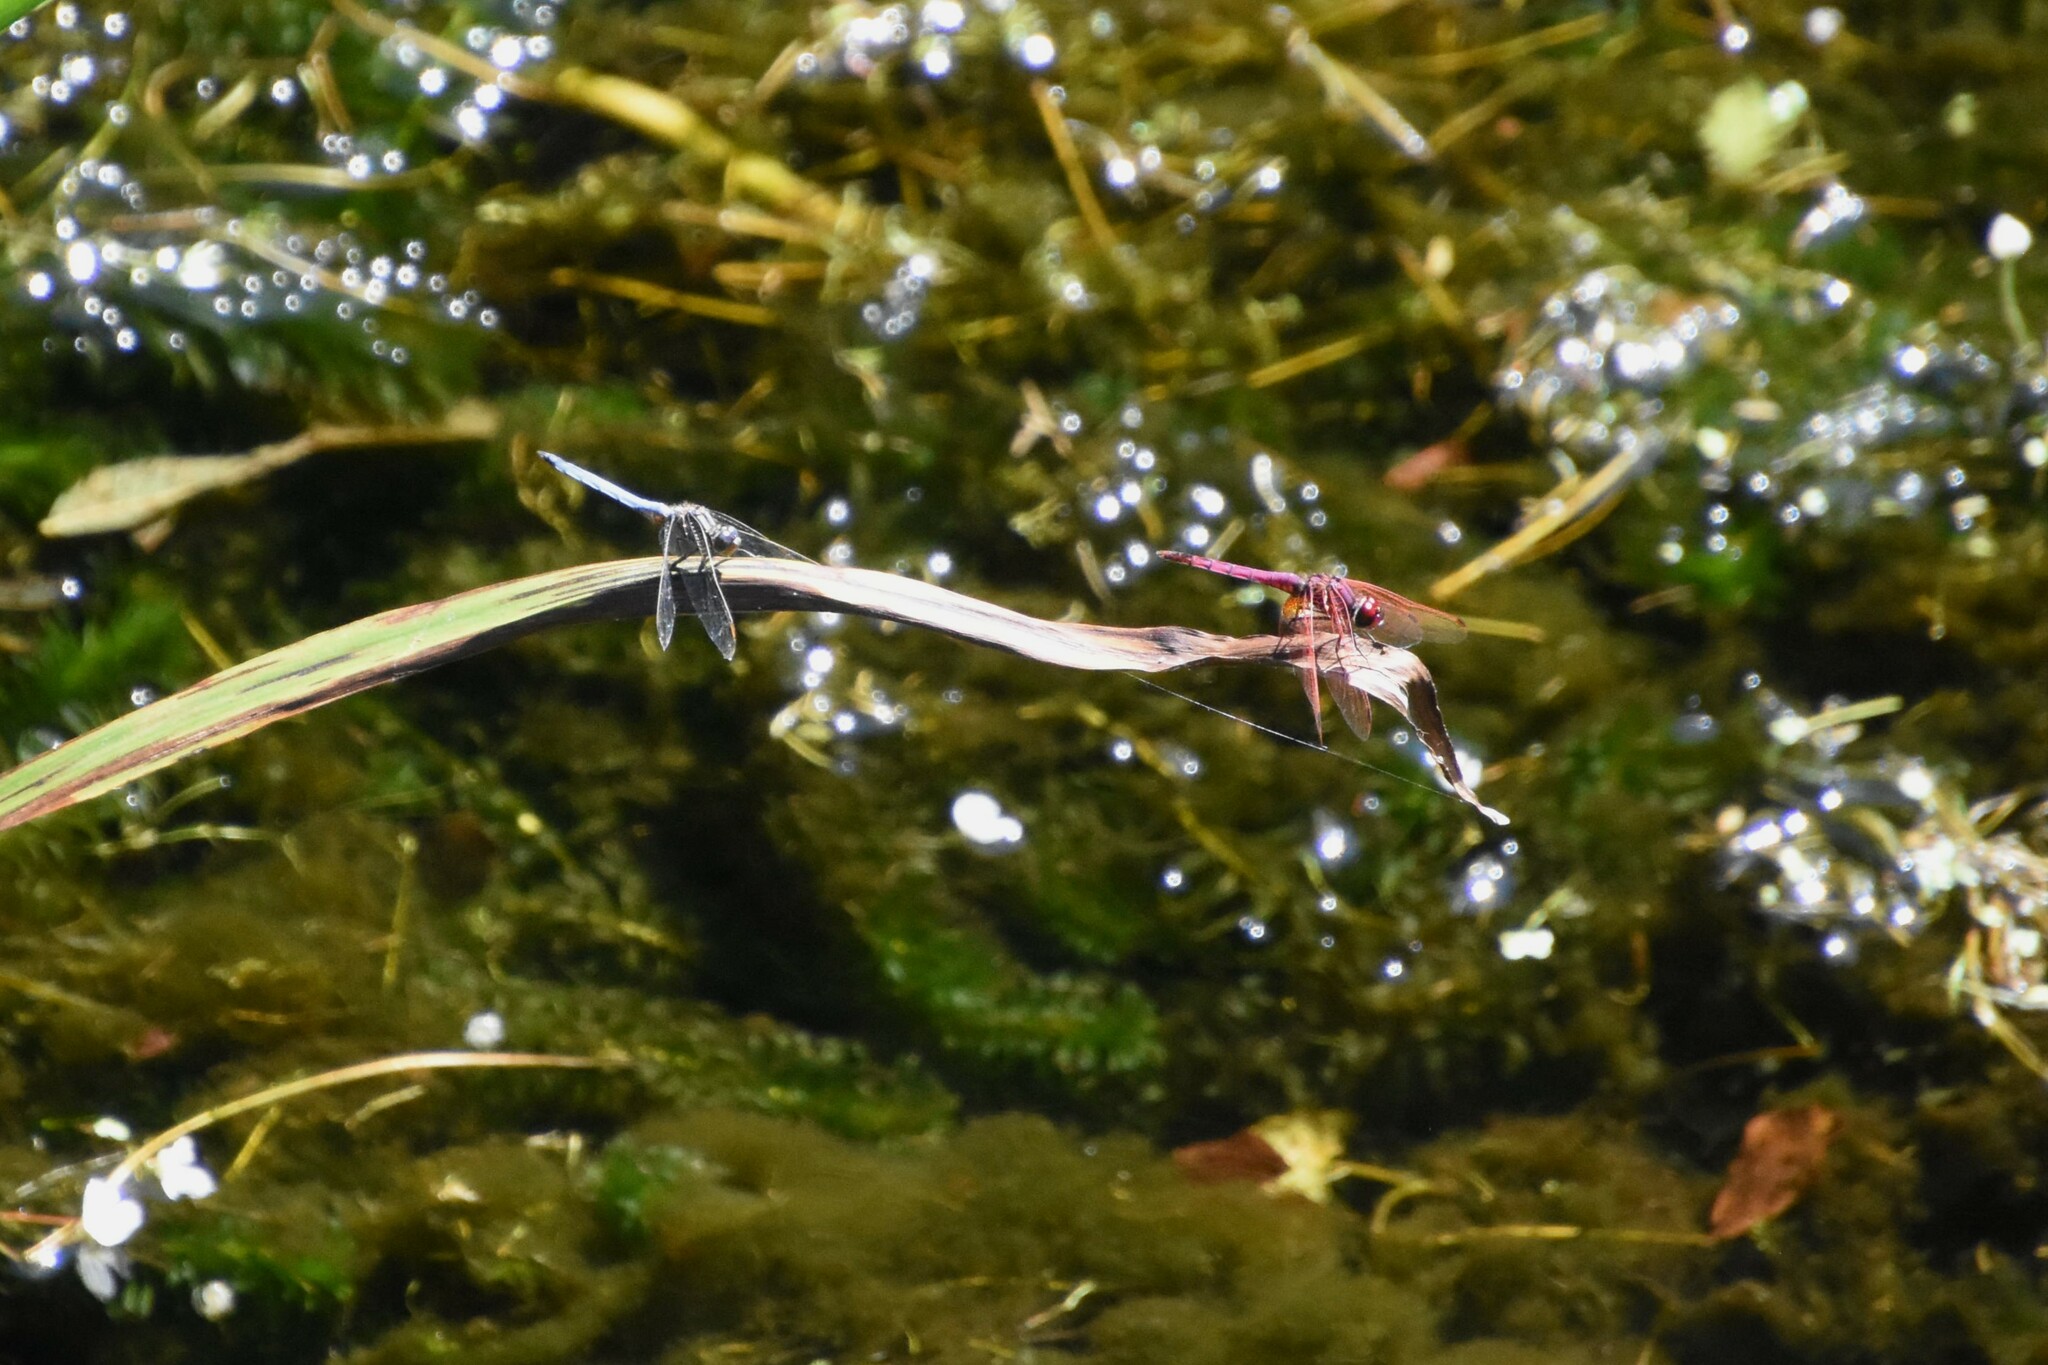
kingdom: Animalia
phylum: Arthropoda
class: Insecta
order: Odonata
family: Libellulidae
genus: Trithemis
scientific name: Trithemis annulata
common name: Violet dropwing
